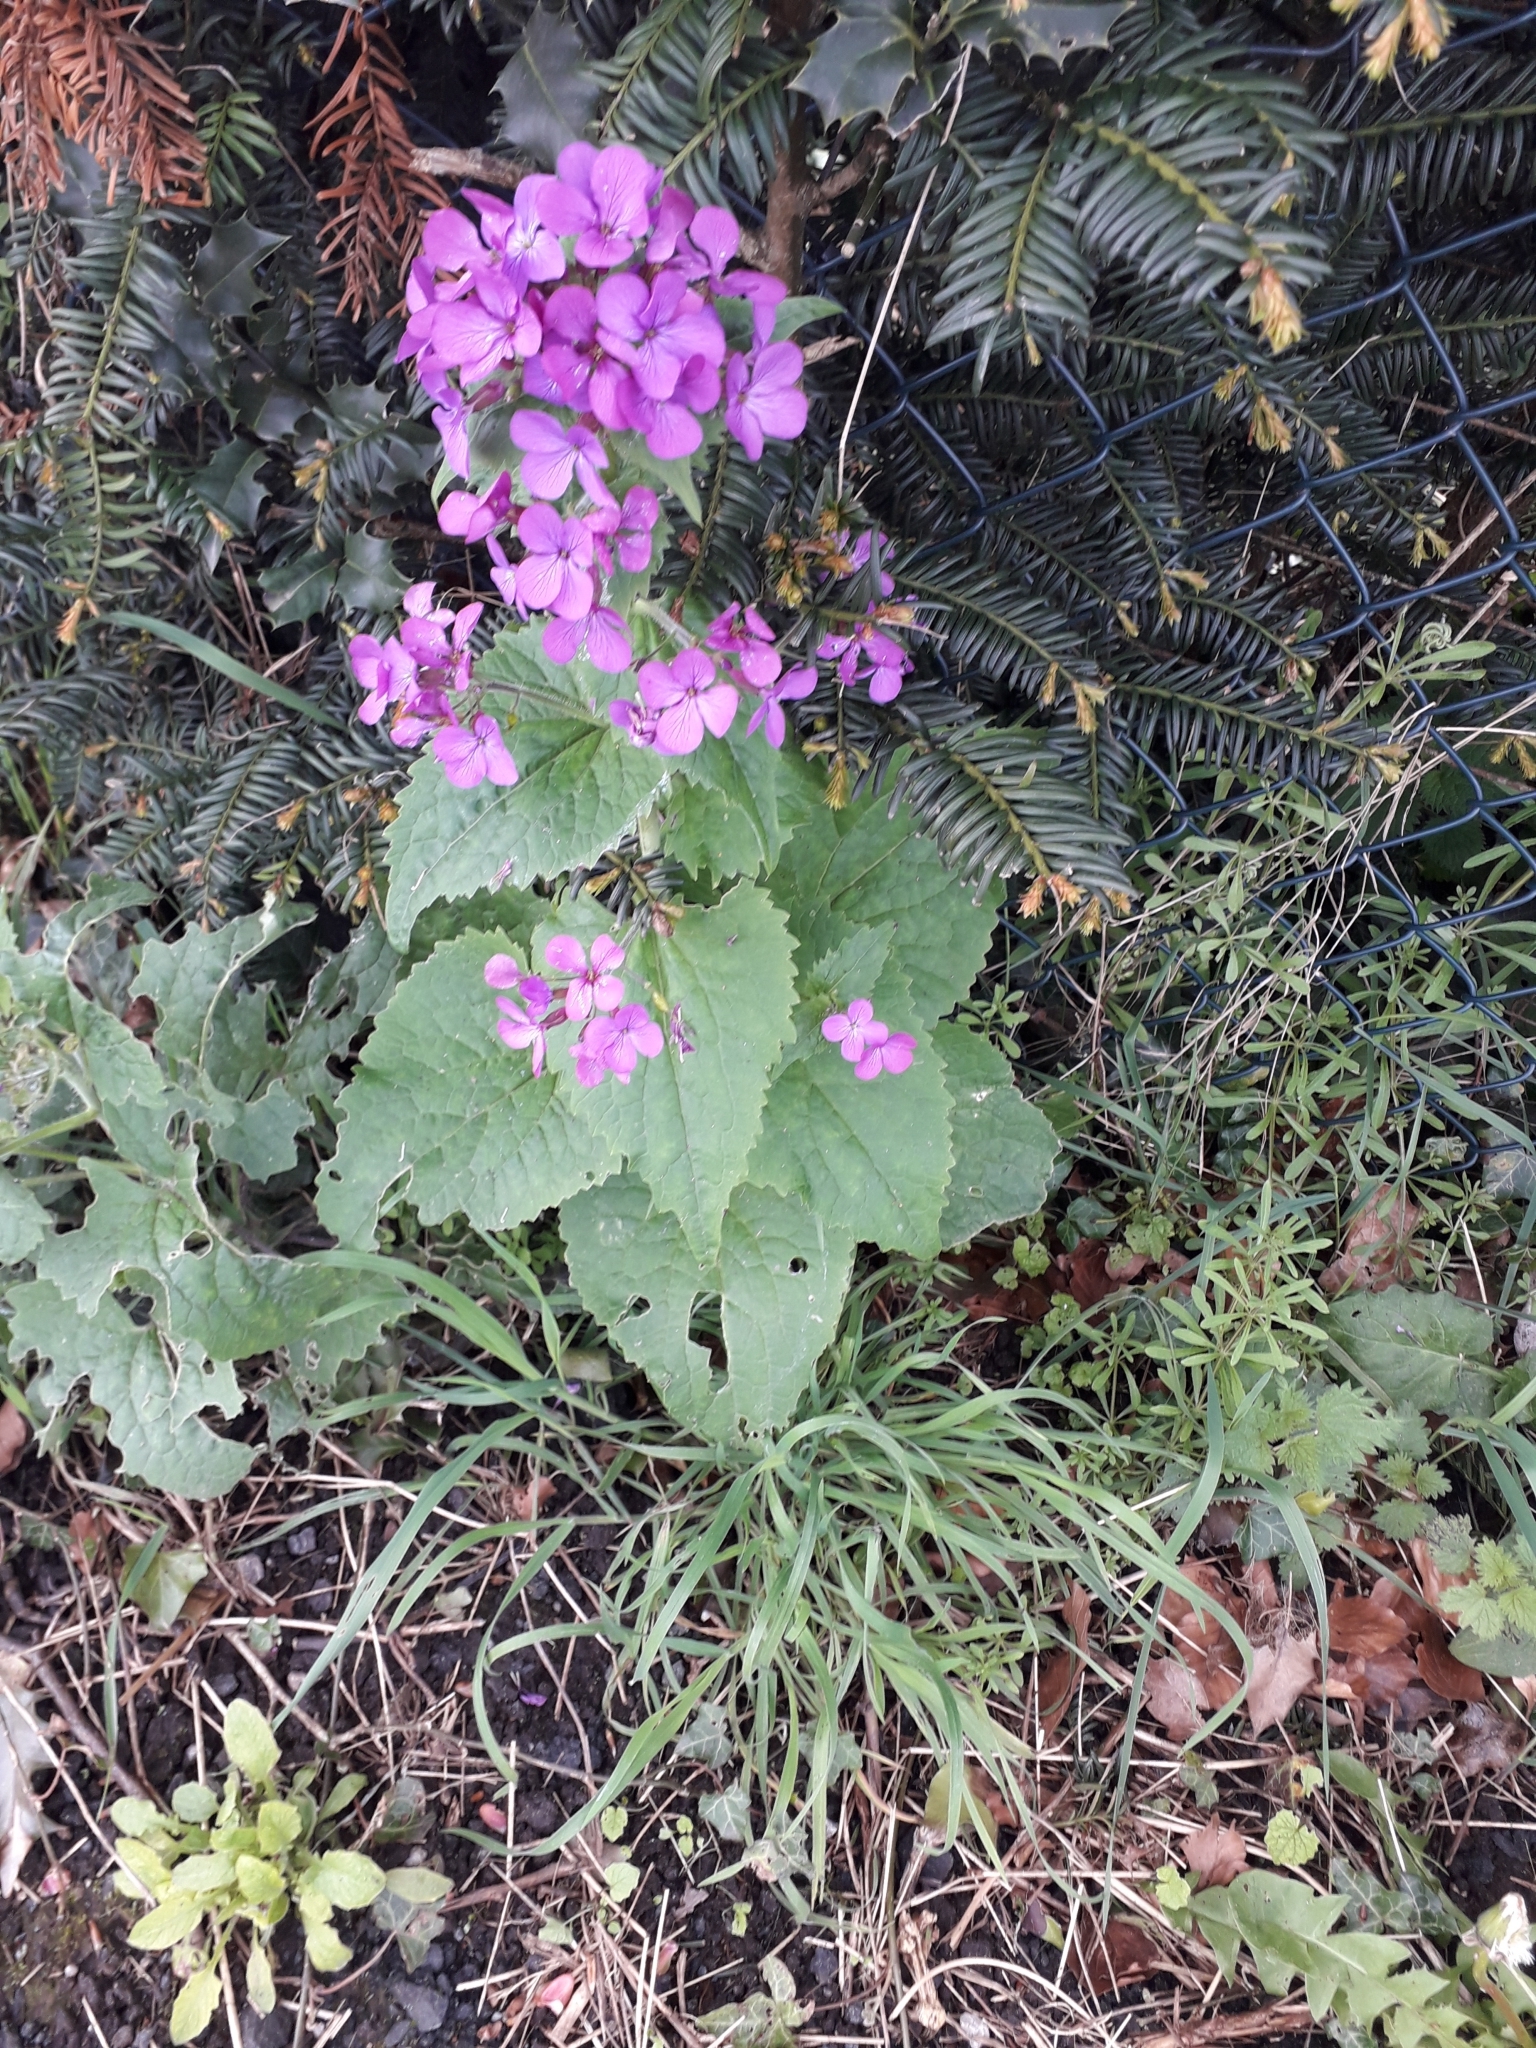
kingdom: Plantae
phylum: Tracheophyta
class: Magnoliopsida
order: Brassicales
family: Brassicaceae
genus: Lunaria
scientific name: Lunaria annua
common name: Honesty
